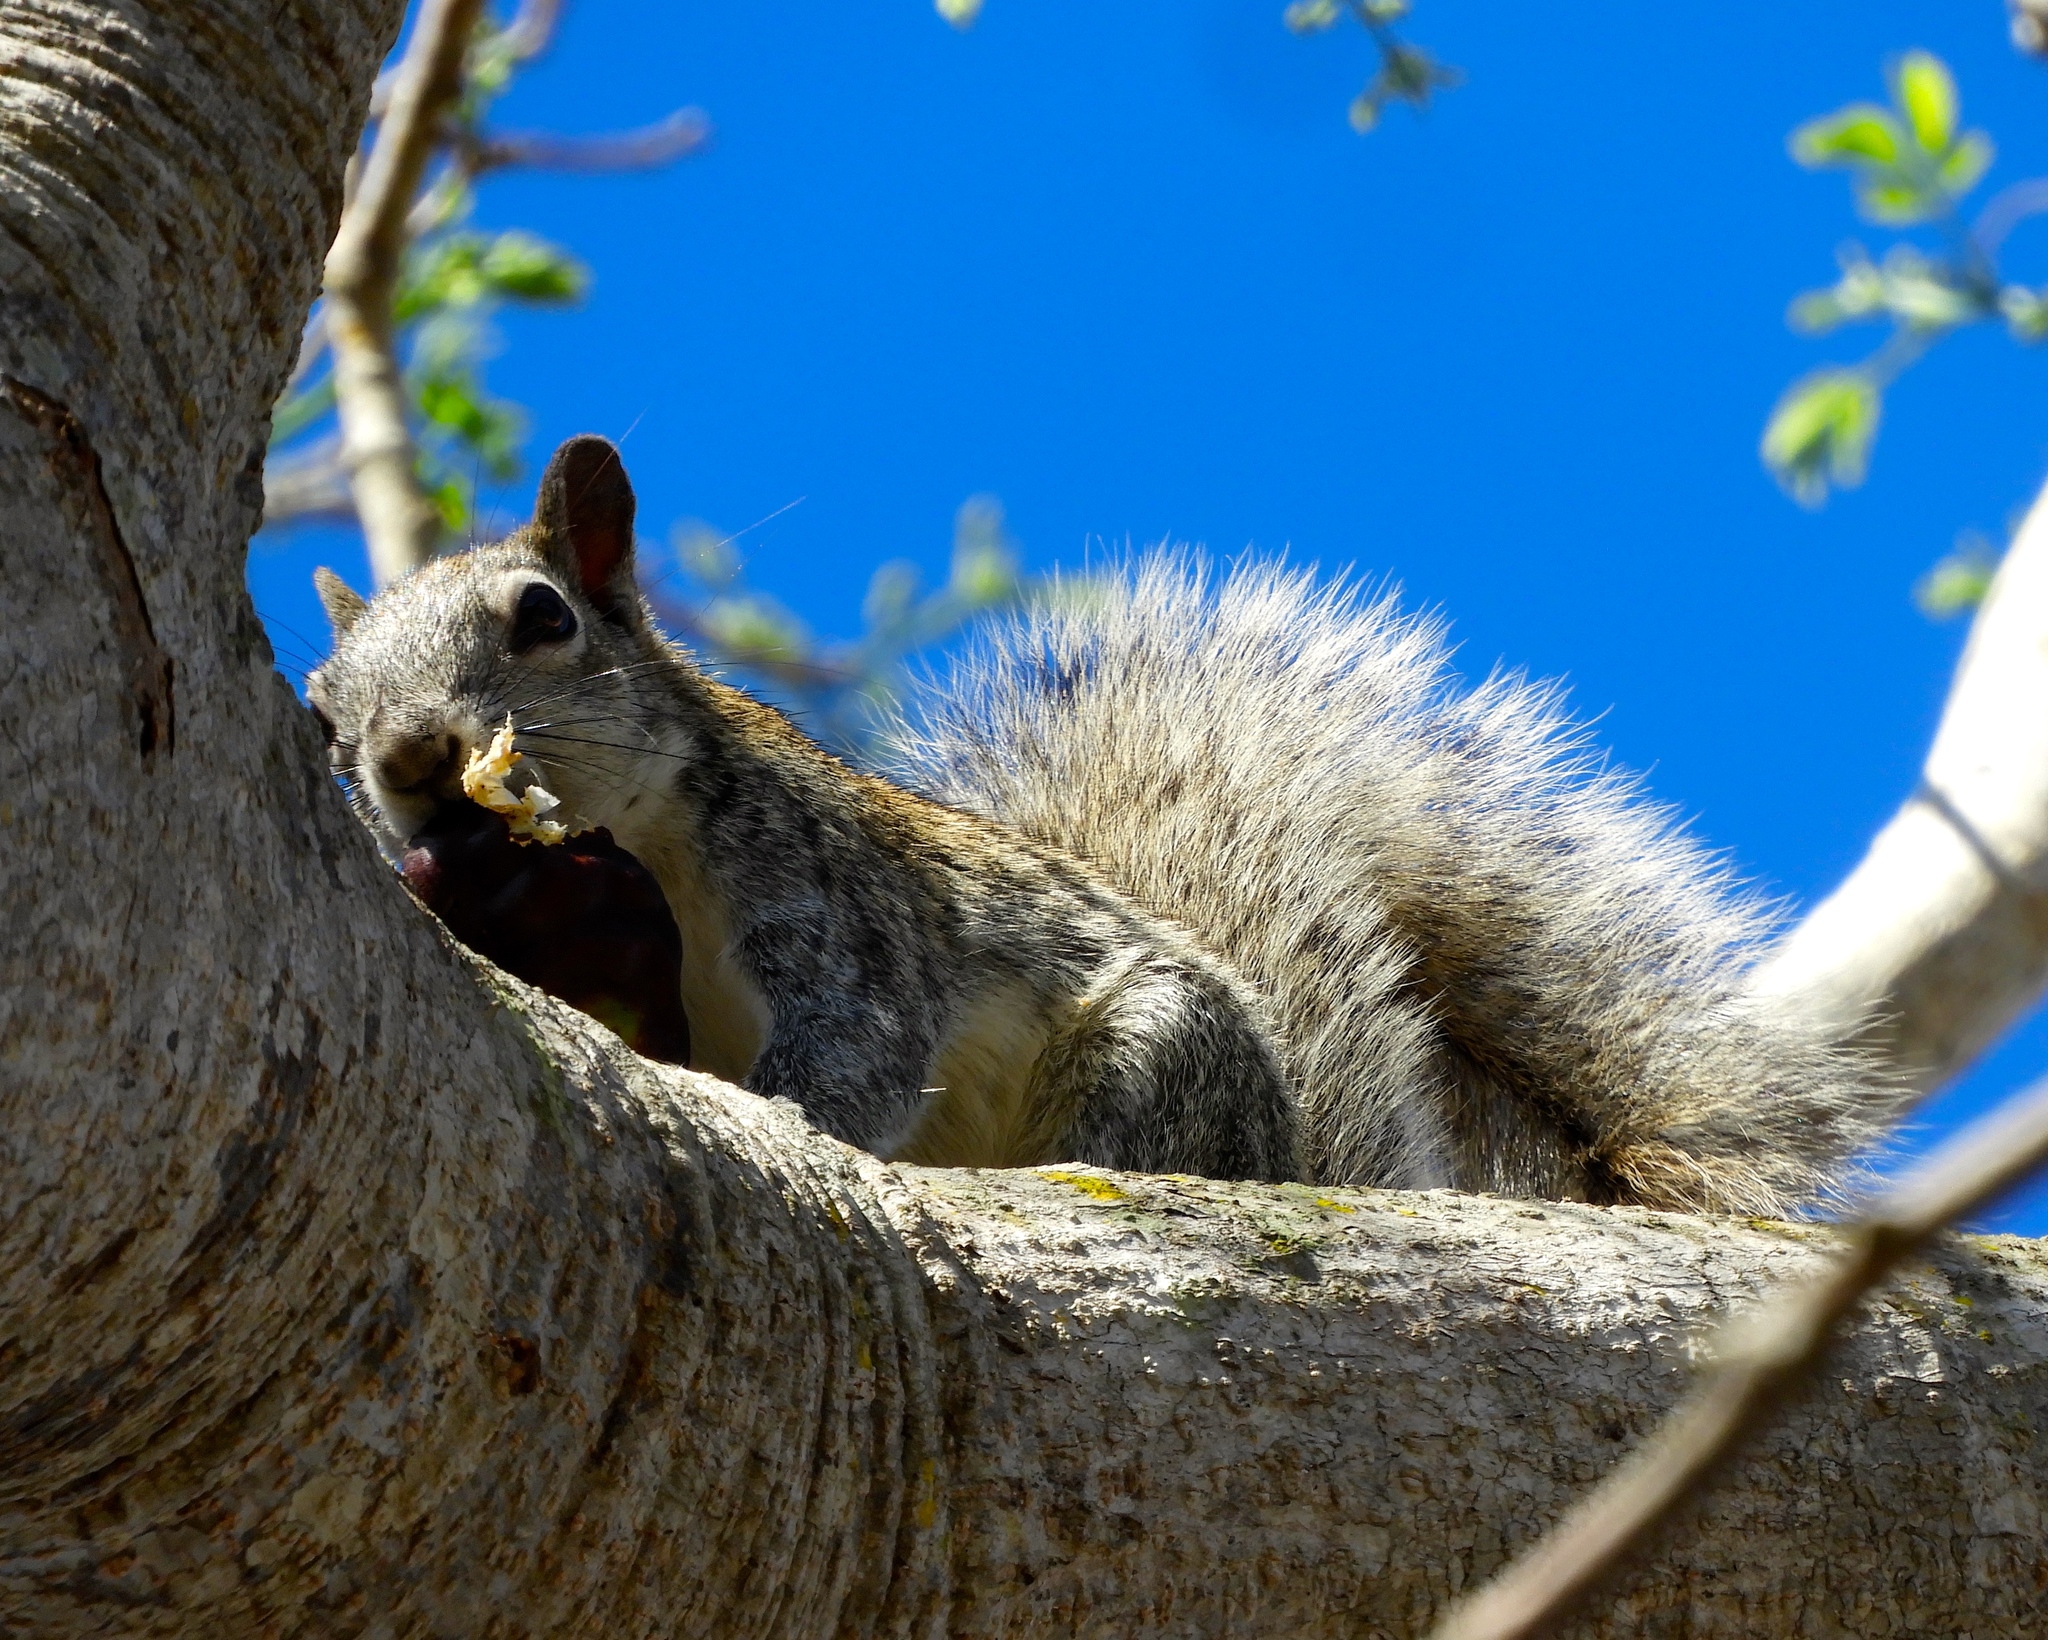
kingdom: Animalia
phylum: Chordata
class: Mammalia
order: Rodentia
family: Sciuridae
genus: Sciurus
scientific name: Sciurus colliaei
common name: Collie's squirrel
